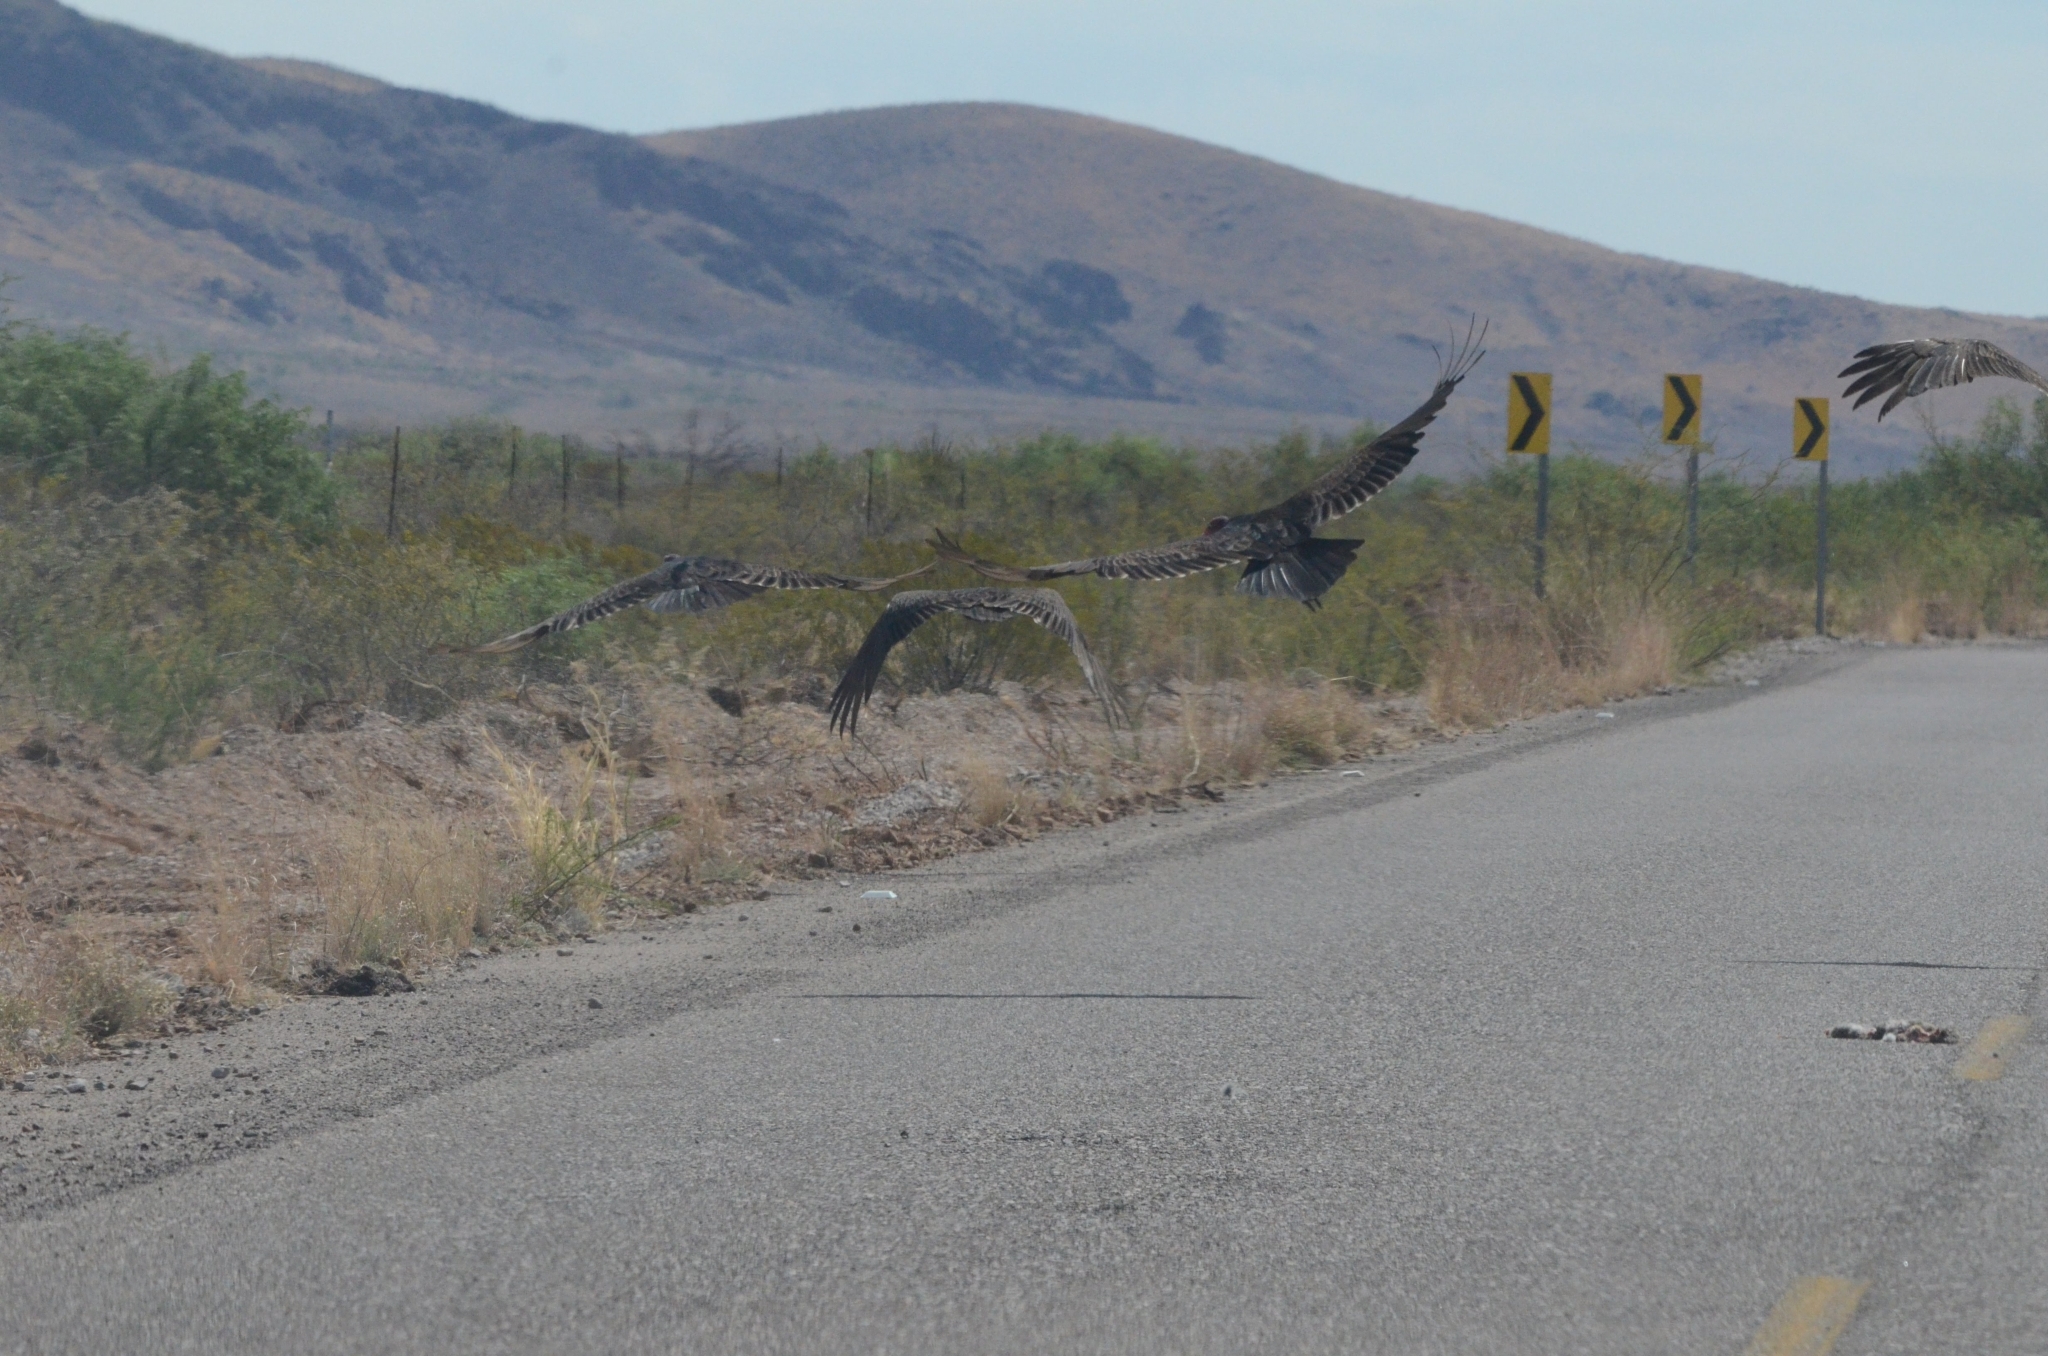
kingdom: Animalia
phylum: Chordata
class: Aves
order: Accipitriformes
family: Cathartidae
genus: Cathartes
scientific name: Cathartes aura
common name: Turkey vulture
